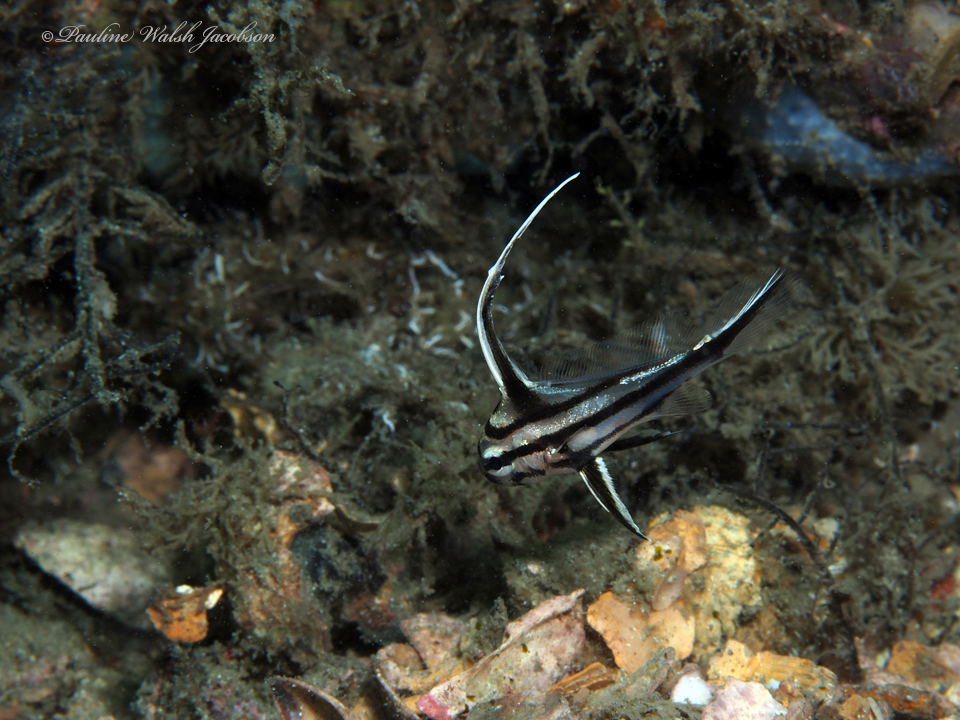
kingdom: Animalia
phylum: Chordata
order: Perciformes
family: Sciaenidae
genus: Pareques
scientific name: Pareques acuminatus
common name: High-hat
